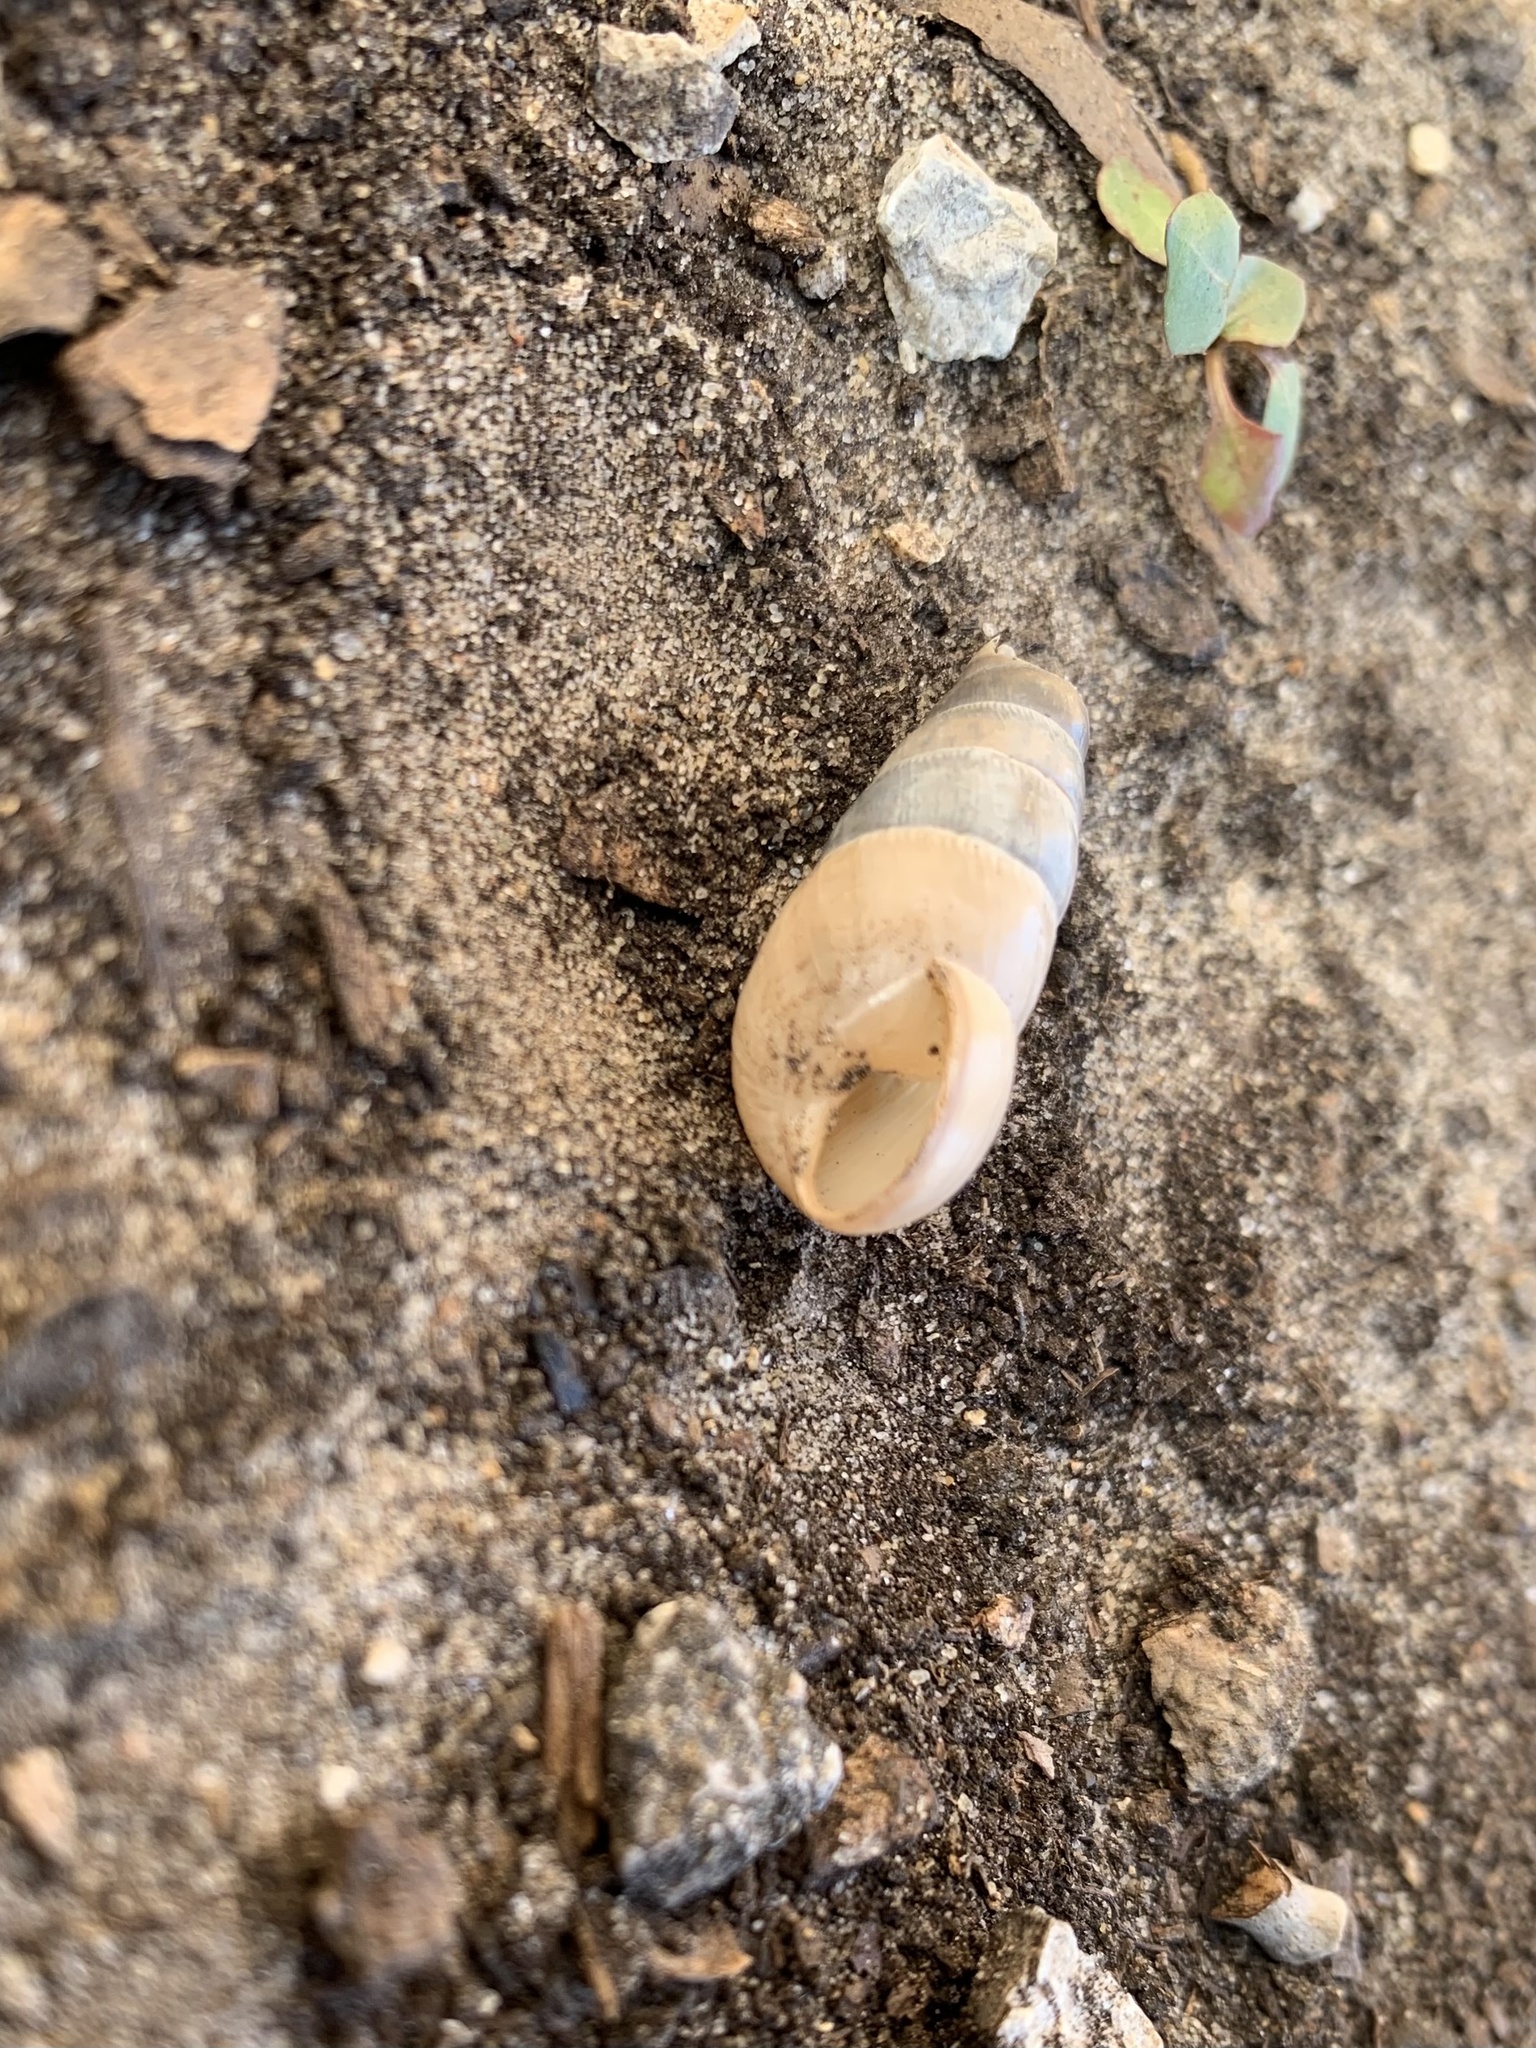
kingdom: Animalia
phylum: Mollusca
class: Gastropoda
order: Stylommatophora
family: Achatinidae
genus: Rumina
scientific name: Rumina decollata
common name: Decollate snail
